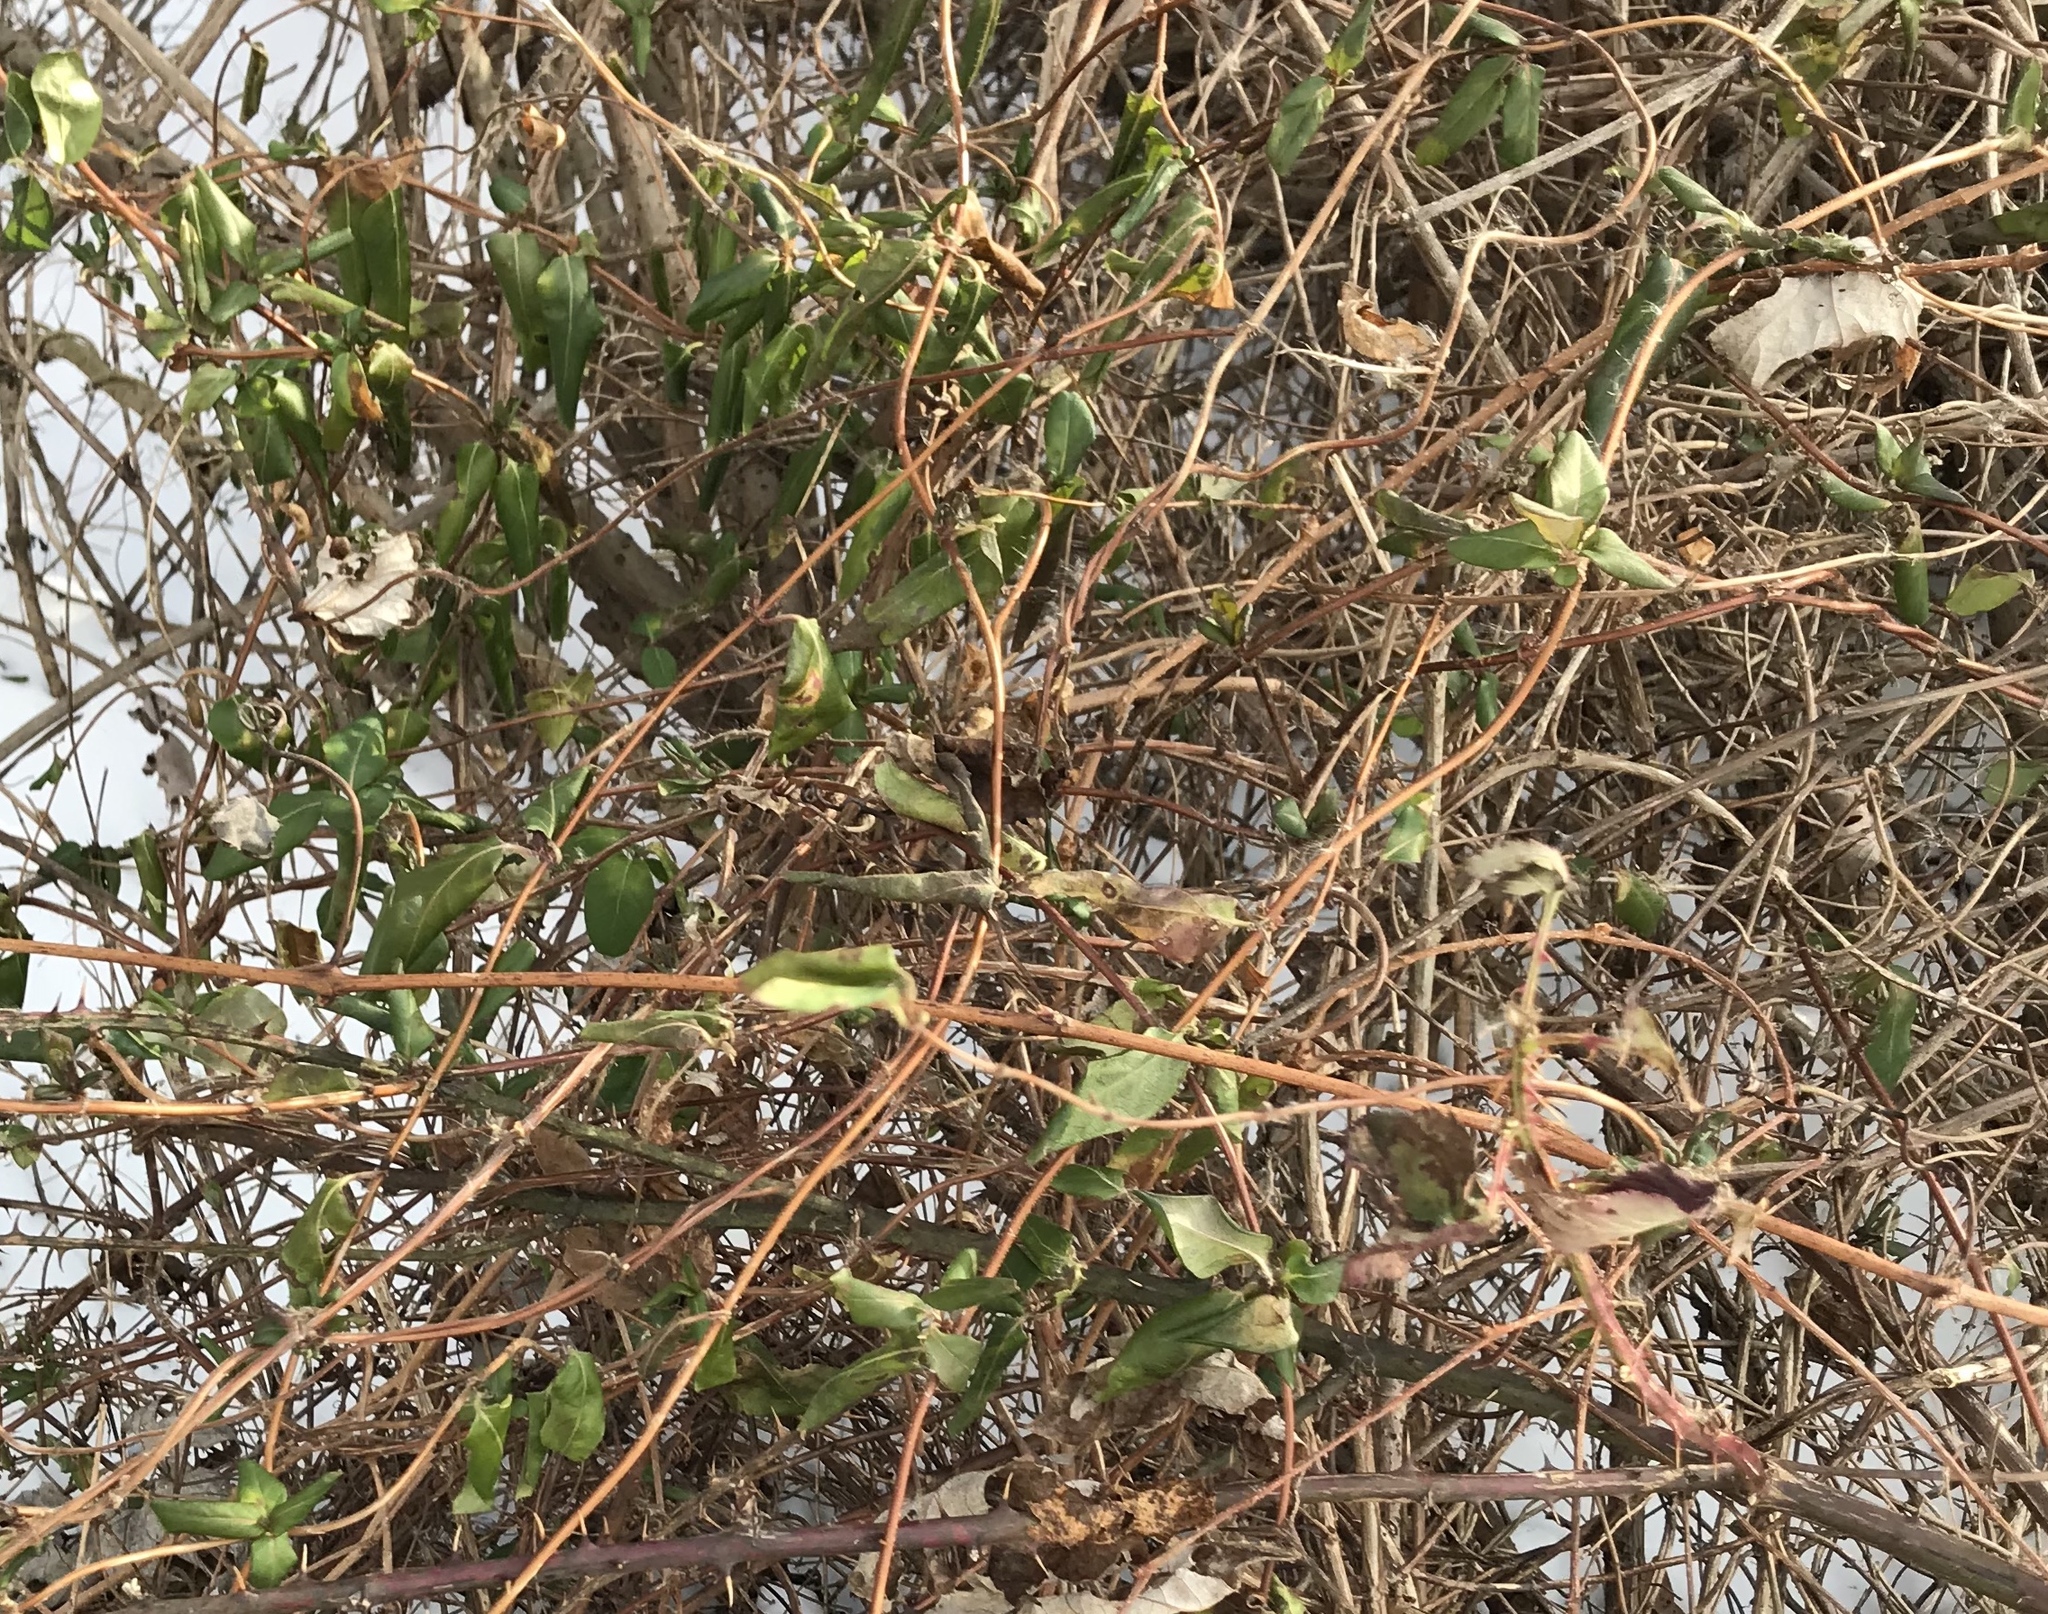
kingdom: Plantae
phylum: Tracheophyta
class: Magnoliopsida
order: Dipsacales
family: Caprifoliaceae
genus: Lonicera
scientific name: Lonicera japonica
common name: Japanese honeysuckle
